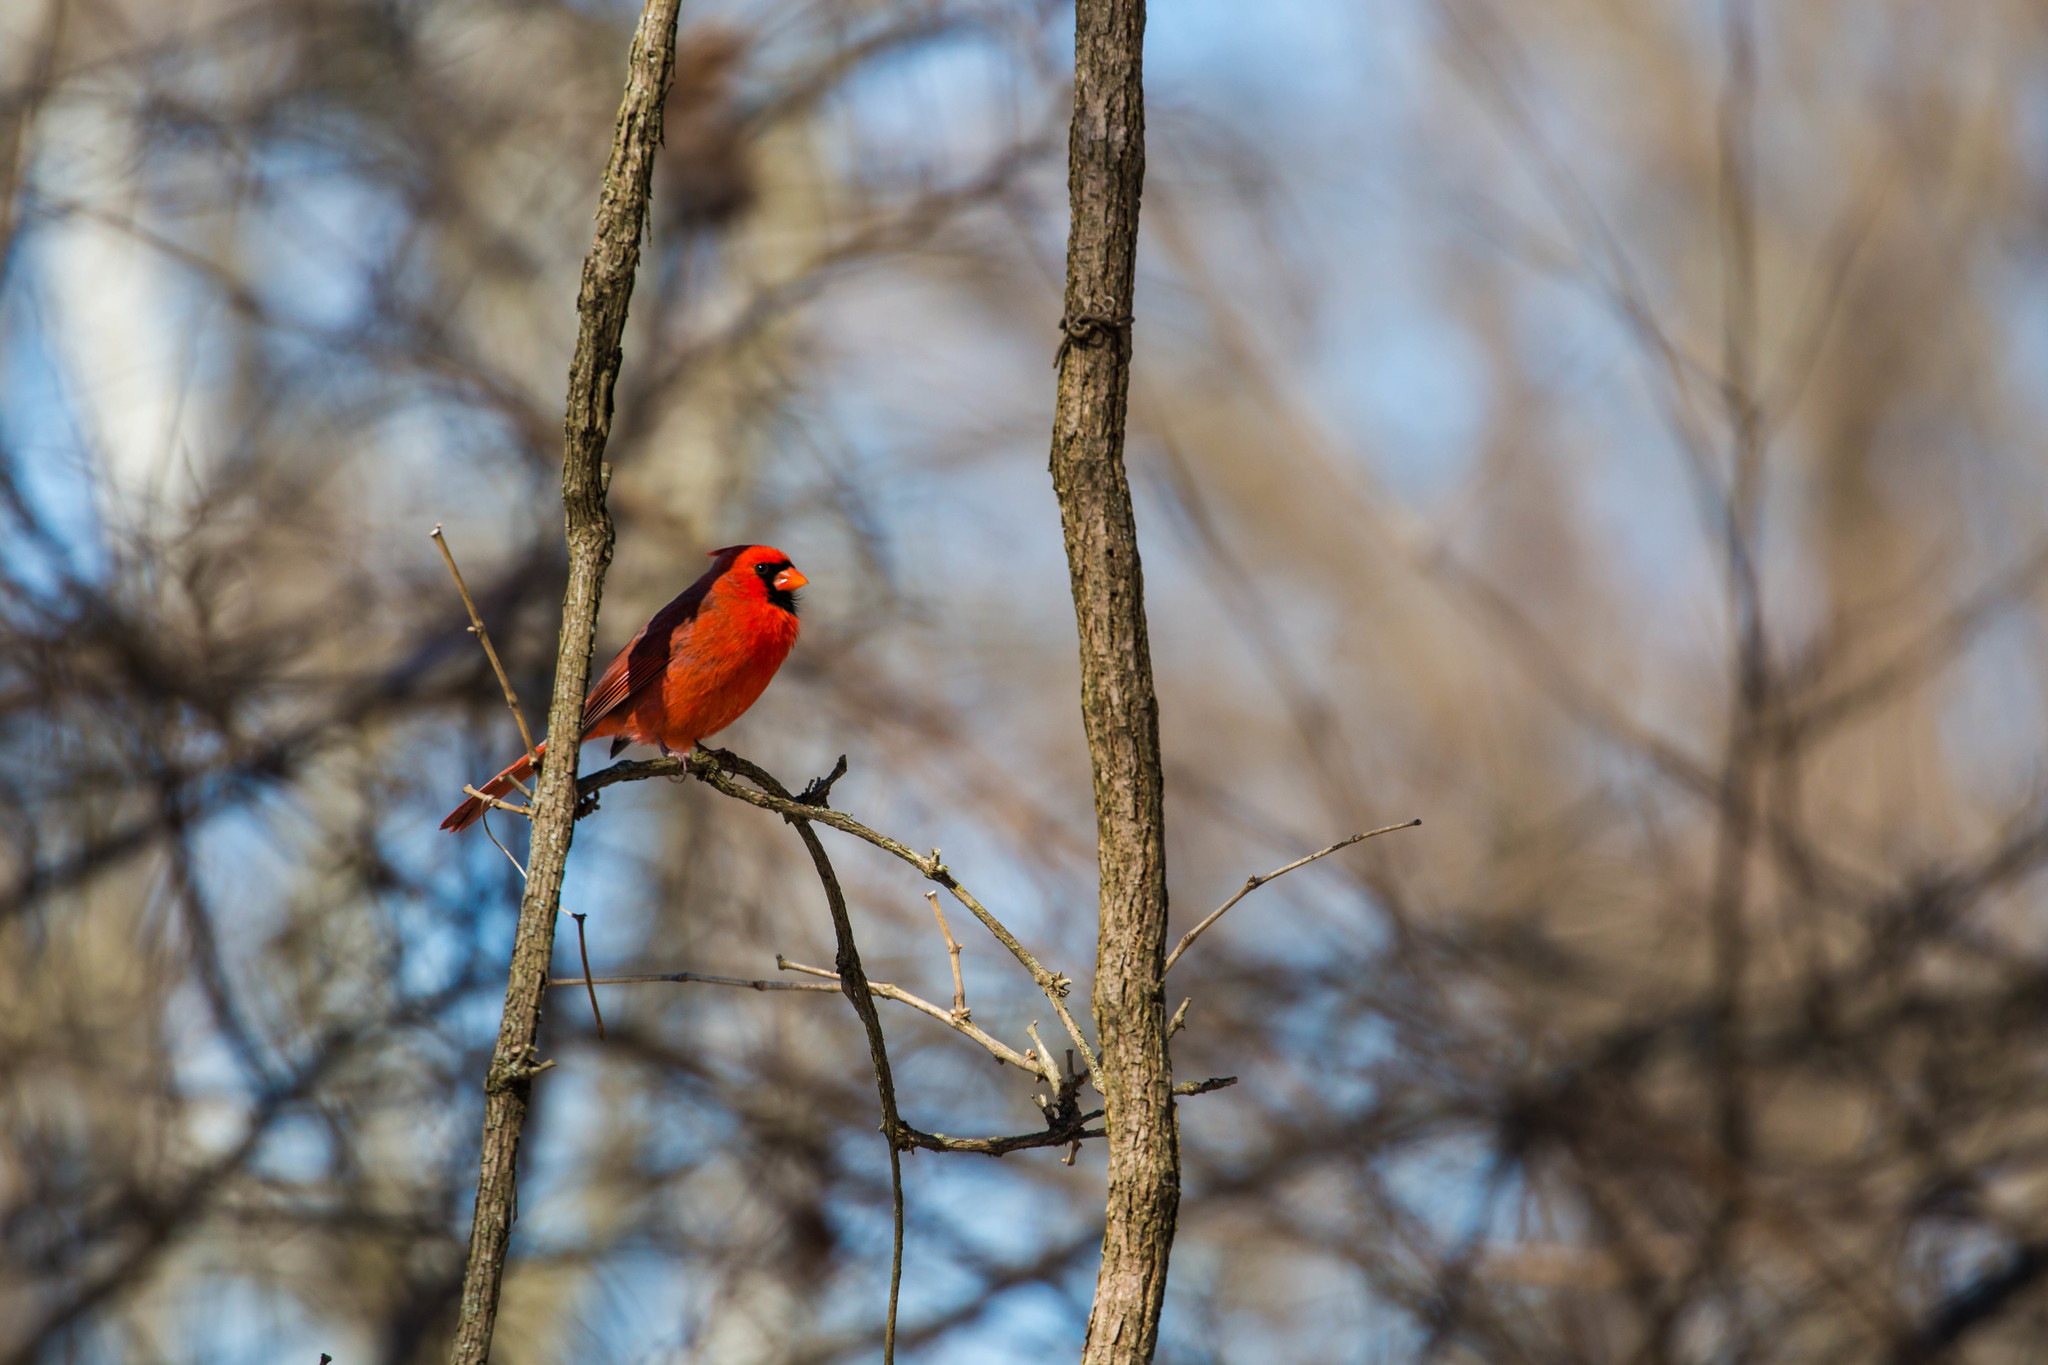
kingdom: Animalia
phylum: Chordata
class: Aves
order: Passeriformes
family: Cardinalidae
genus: Cardinalis
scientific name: Cardinalis cardinalis
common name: Northern cardinal
